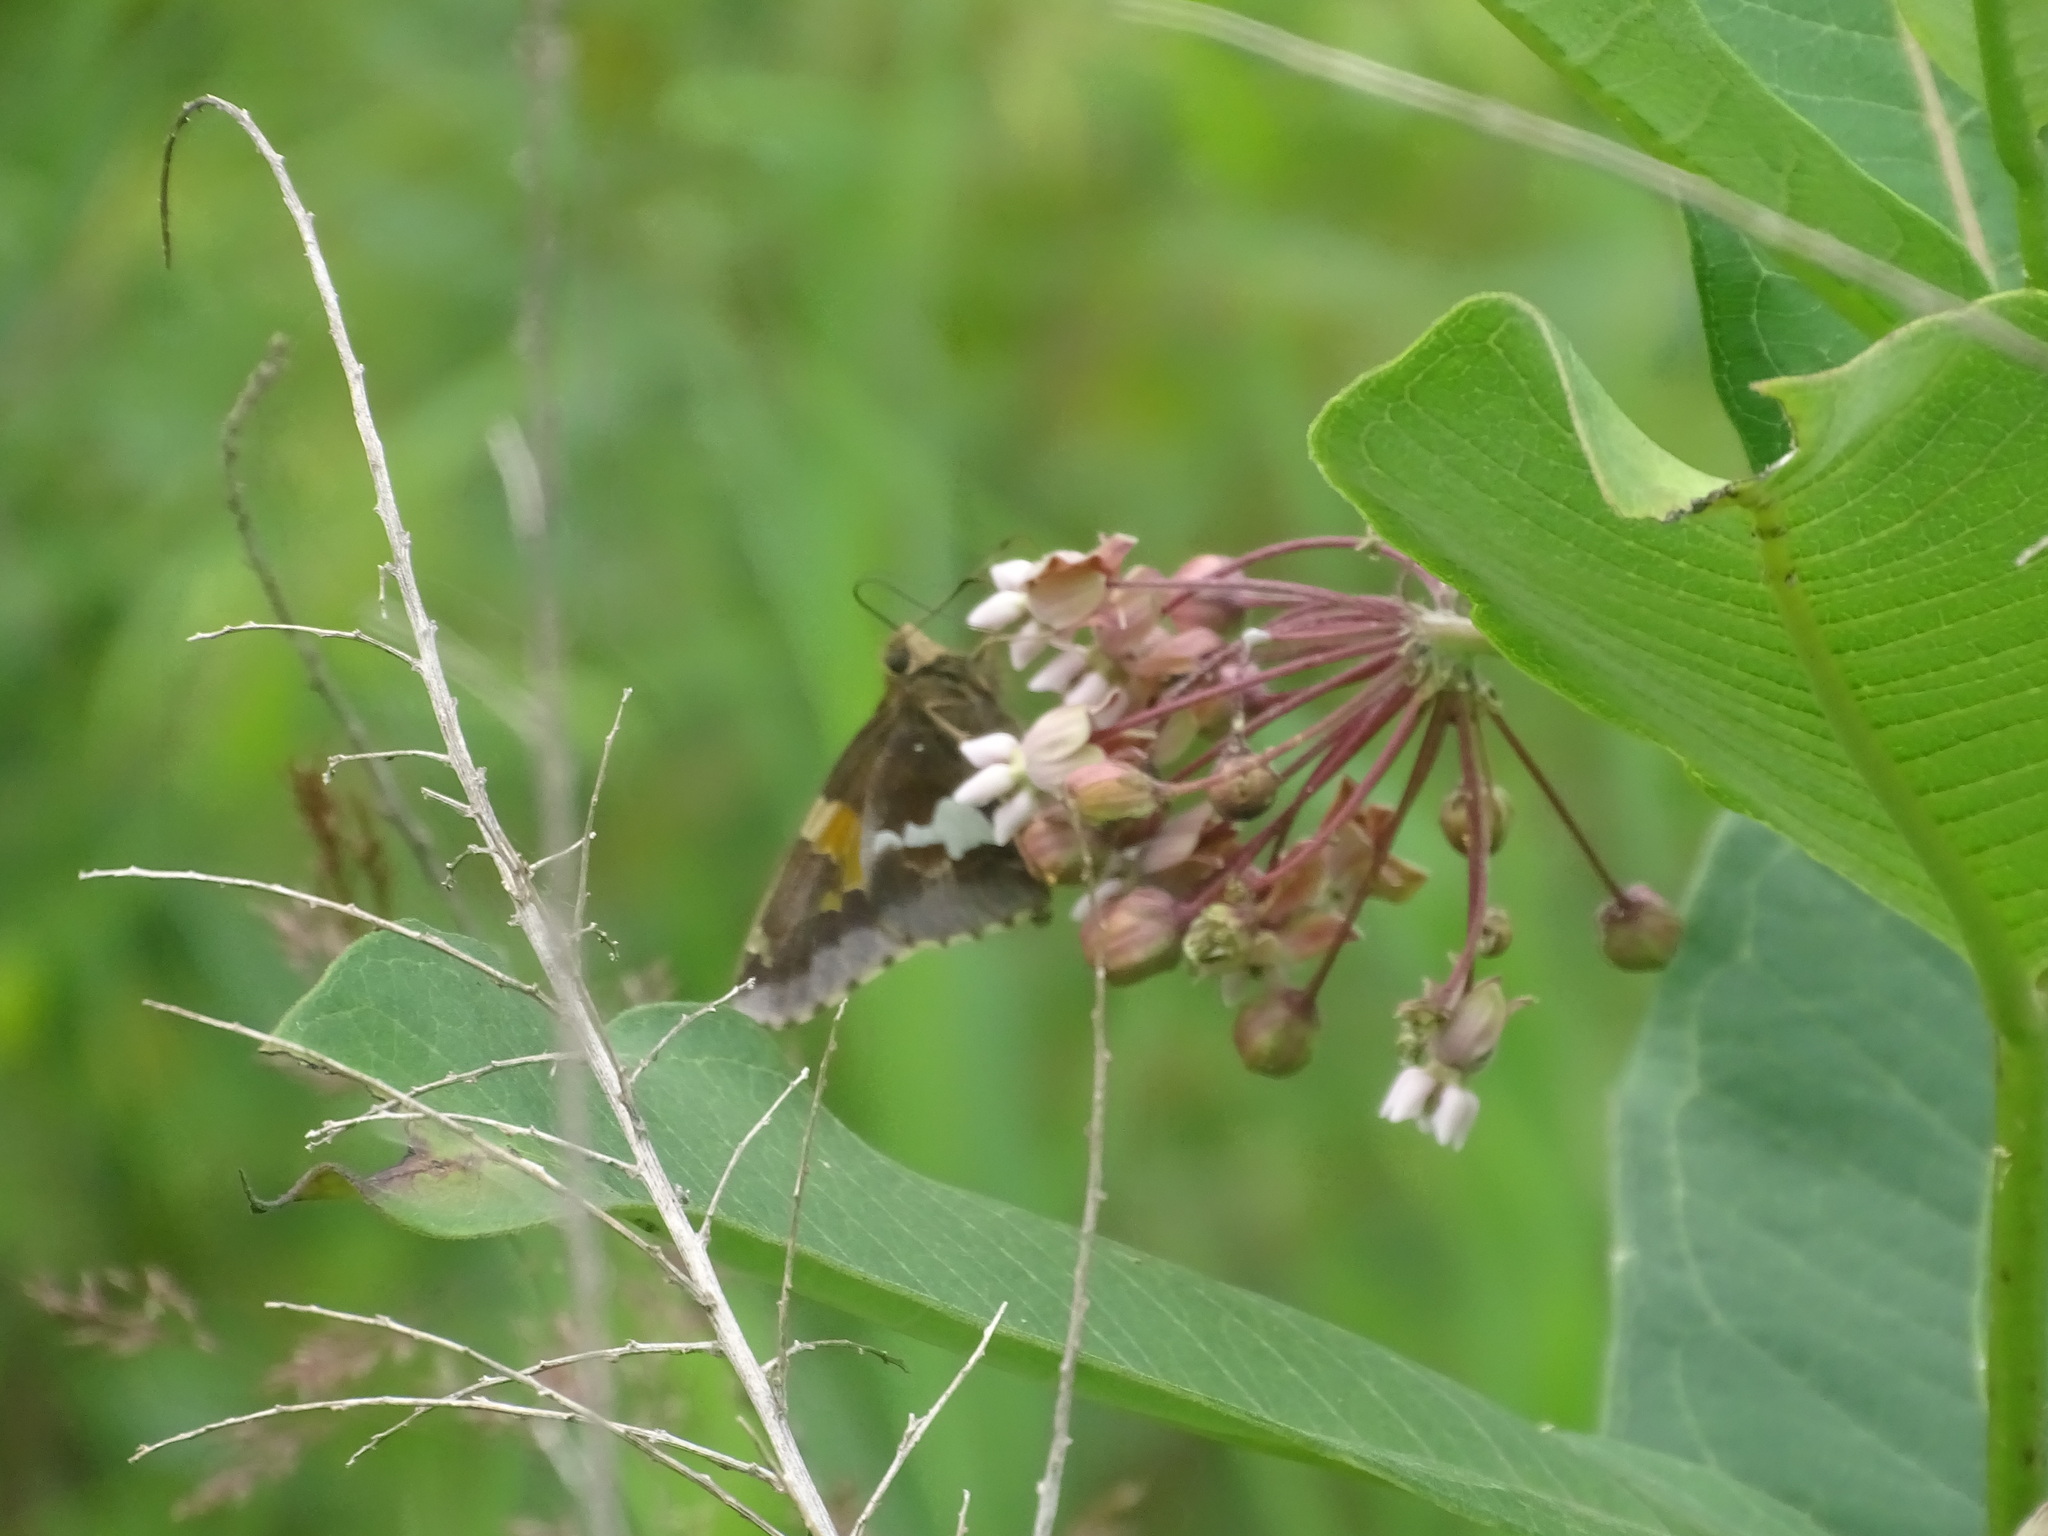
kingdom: Animalia
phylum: Arthropoda
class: Insecta
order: Lepidoptera
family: Hesperiidae
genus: Epargyreus
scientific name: Epargyreus clarus
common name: Silver-spotted skipper
